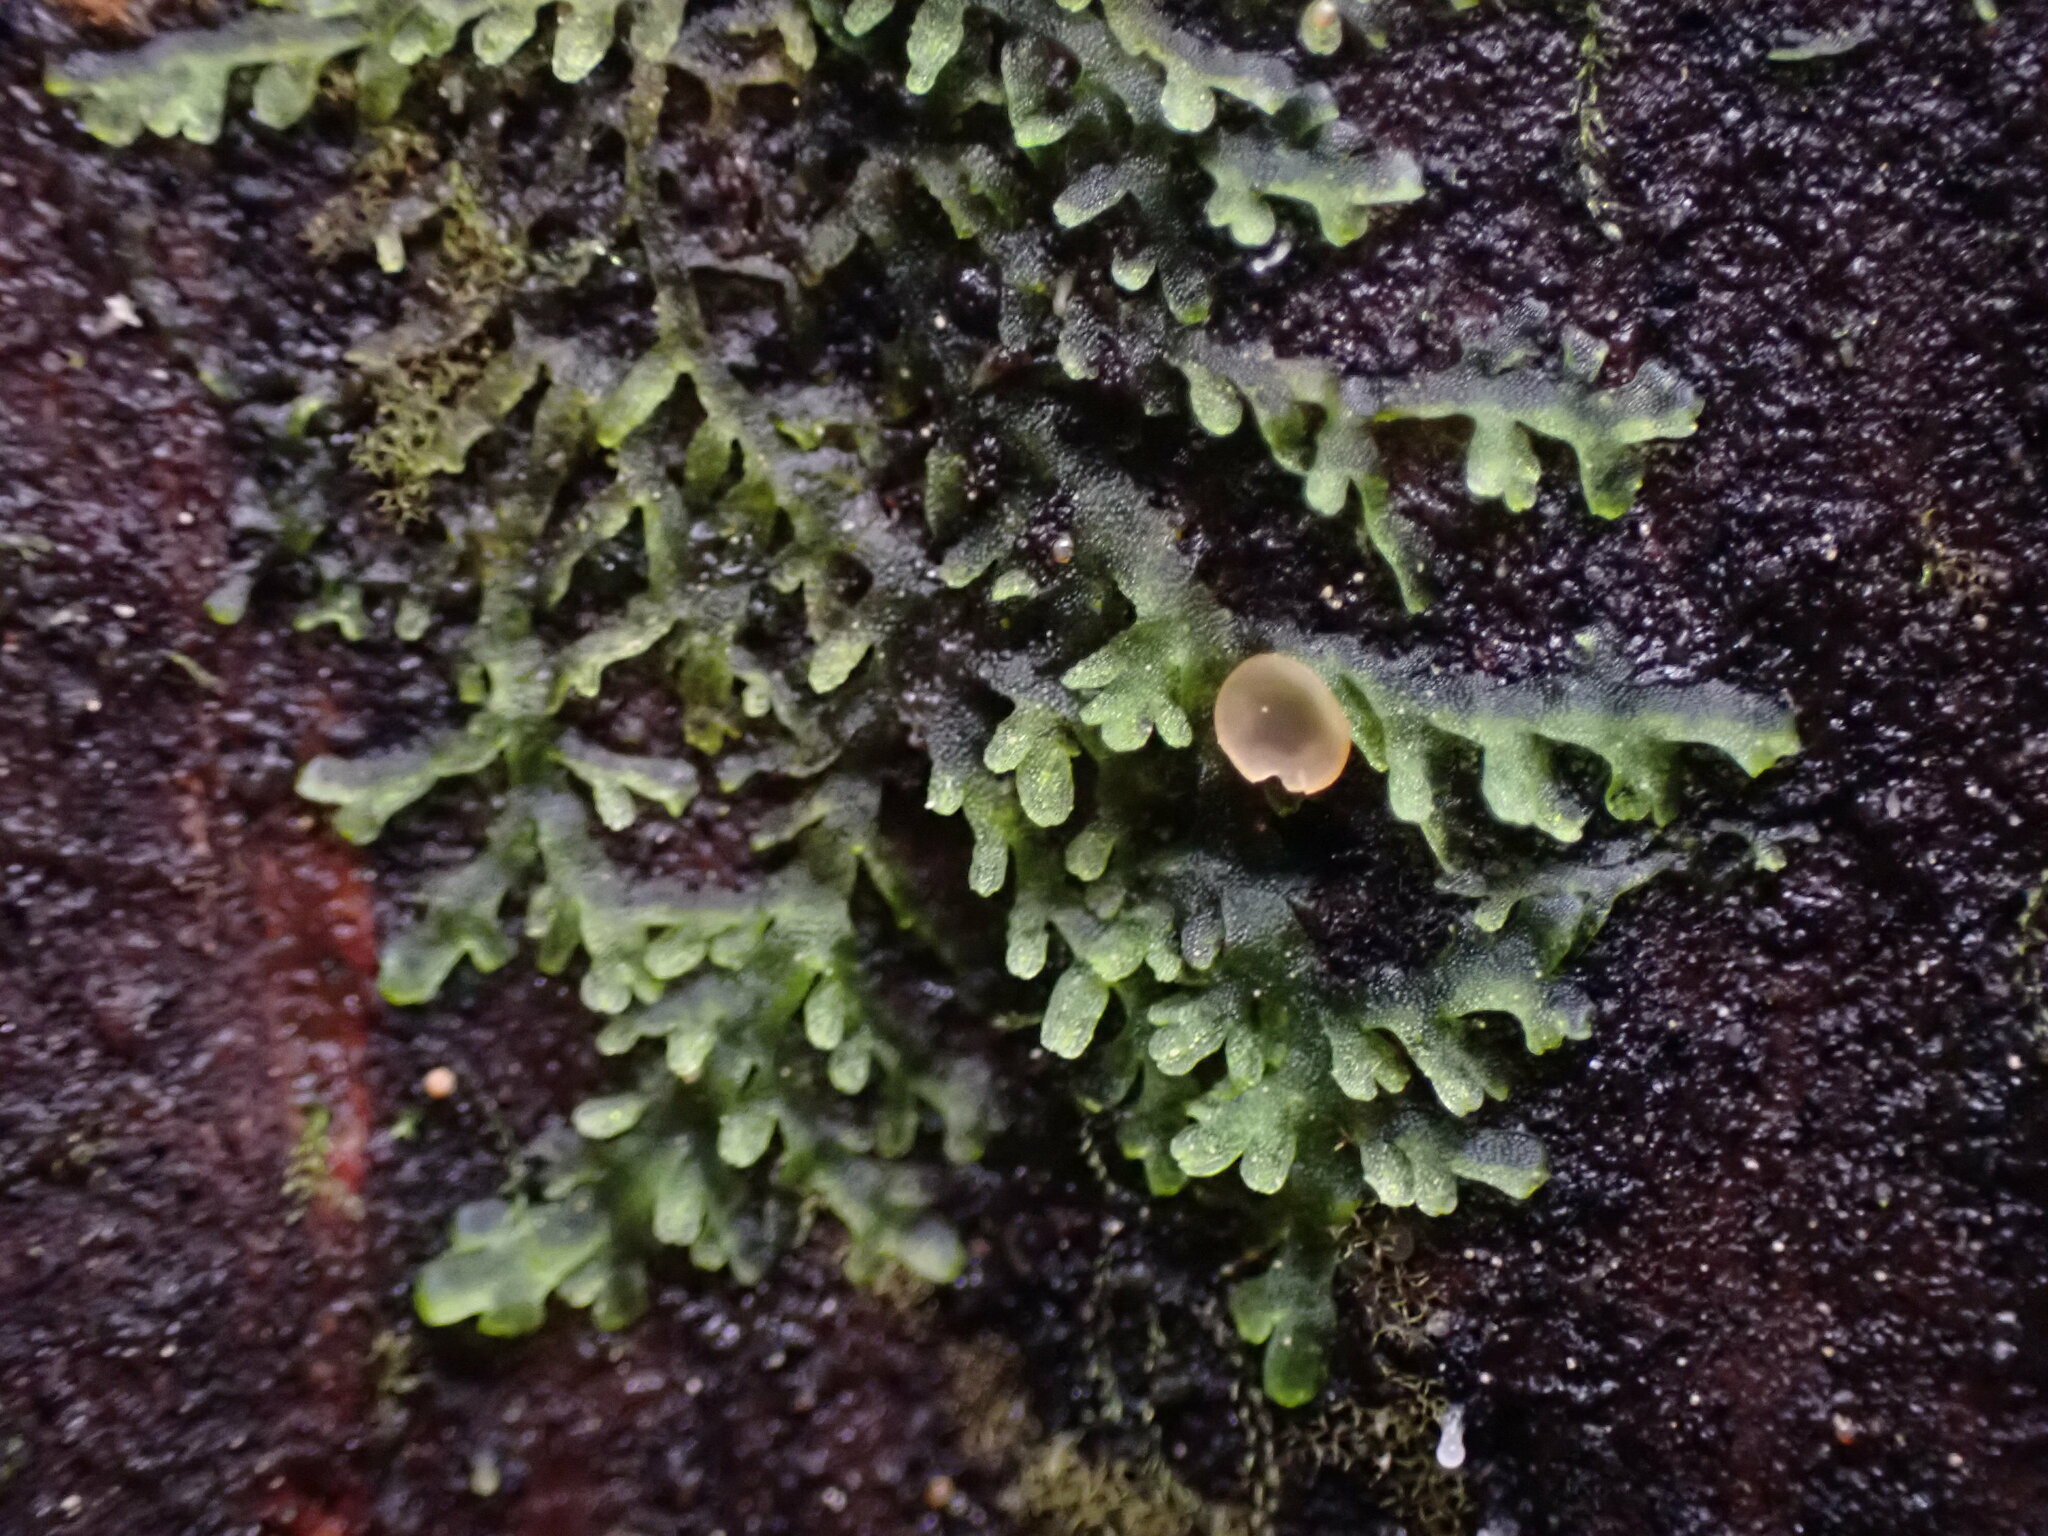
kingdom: Plantae
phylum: Marchantiophyta
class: Jungermanniopsida
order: Metzgeriales
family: Aneuraceae
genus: Riccardia
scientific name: Riccardia chamedryfolia
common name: Jagged germanderwort
